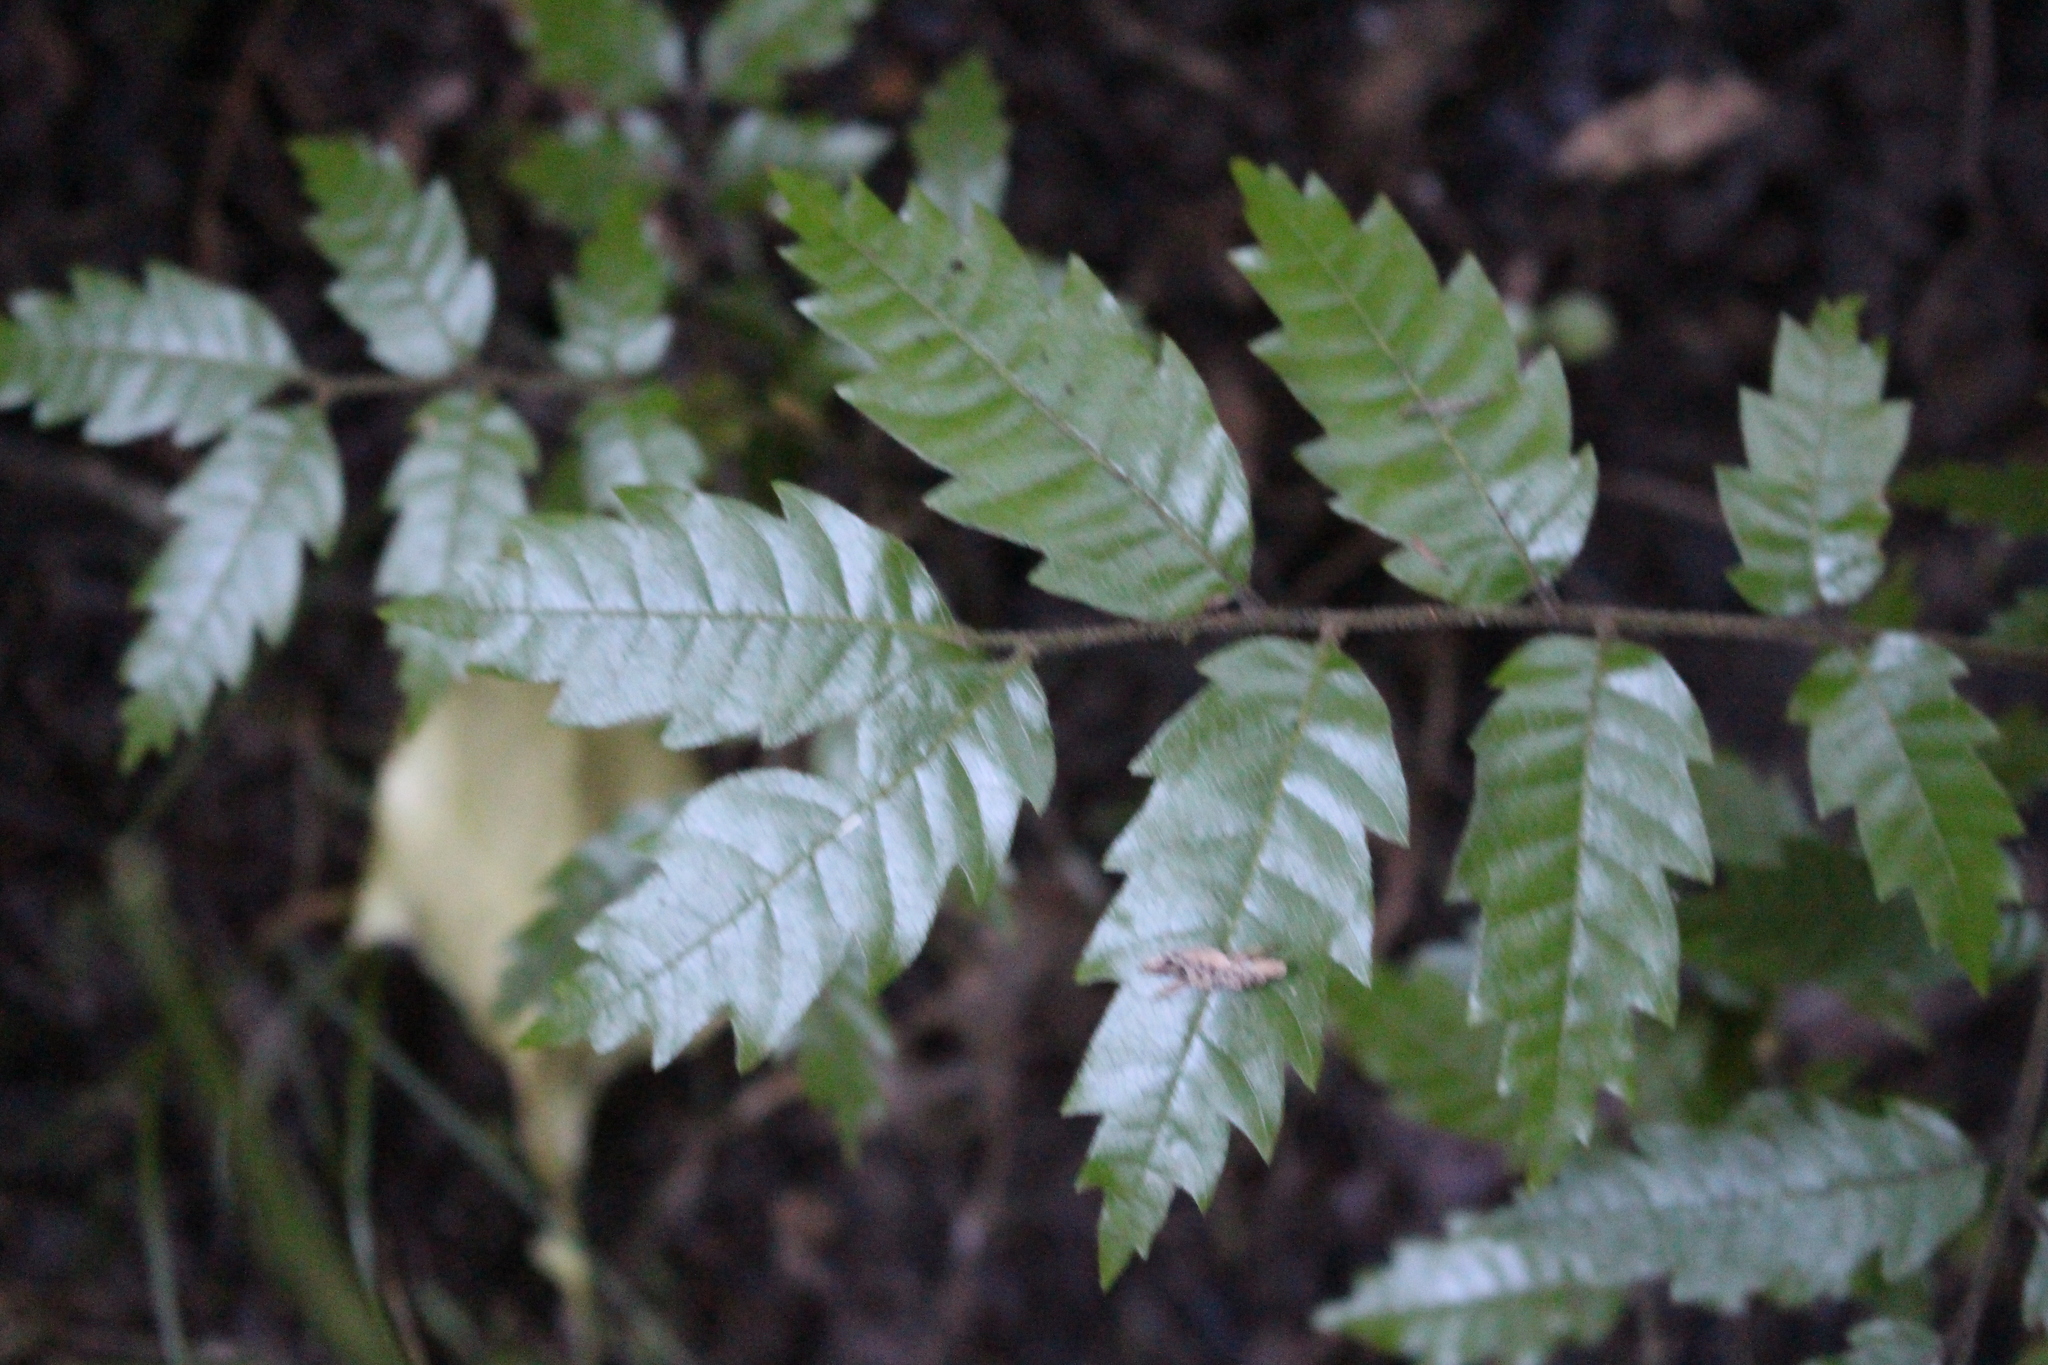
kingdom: Plantae
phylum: Tracheophyta
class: Magnoliopsida
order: Sapindales
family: Sapindaceae
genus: Alectryon
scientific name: Alectryon excelsus
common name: Three kings titoki
